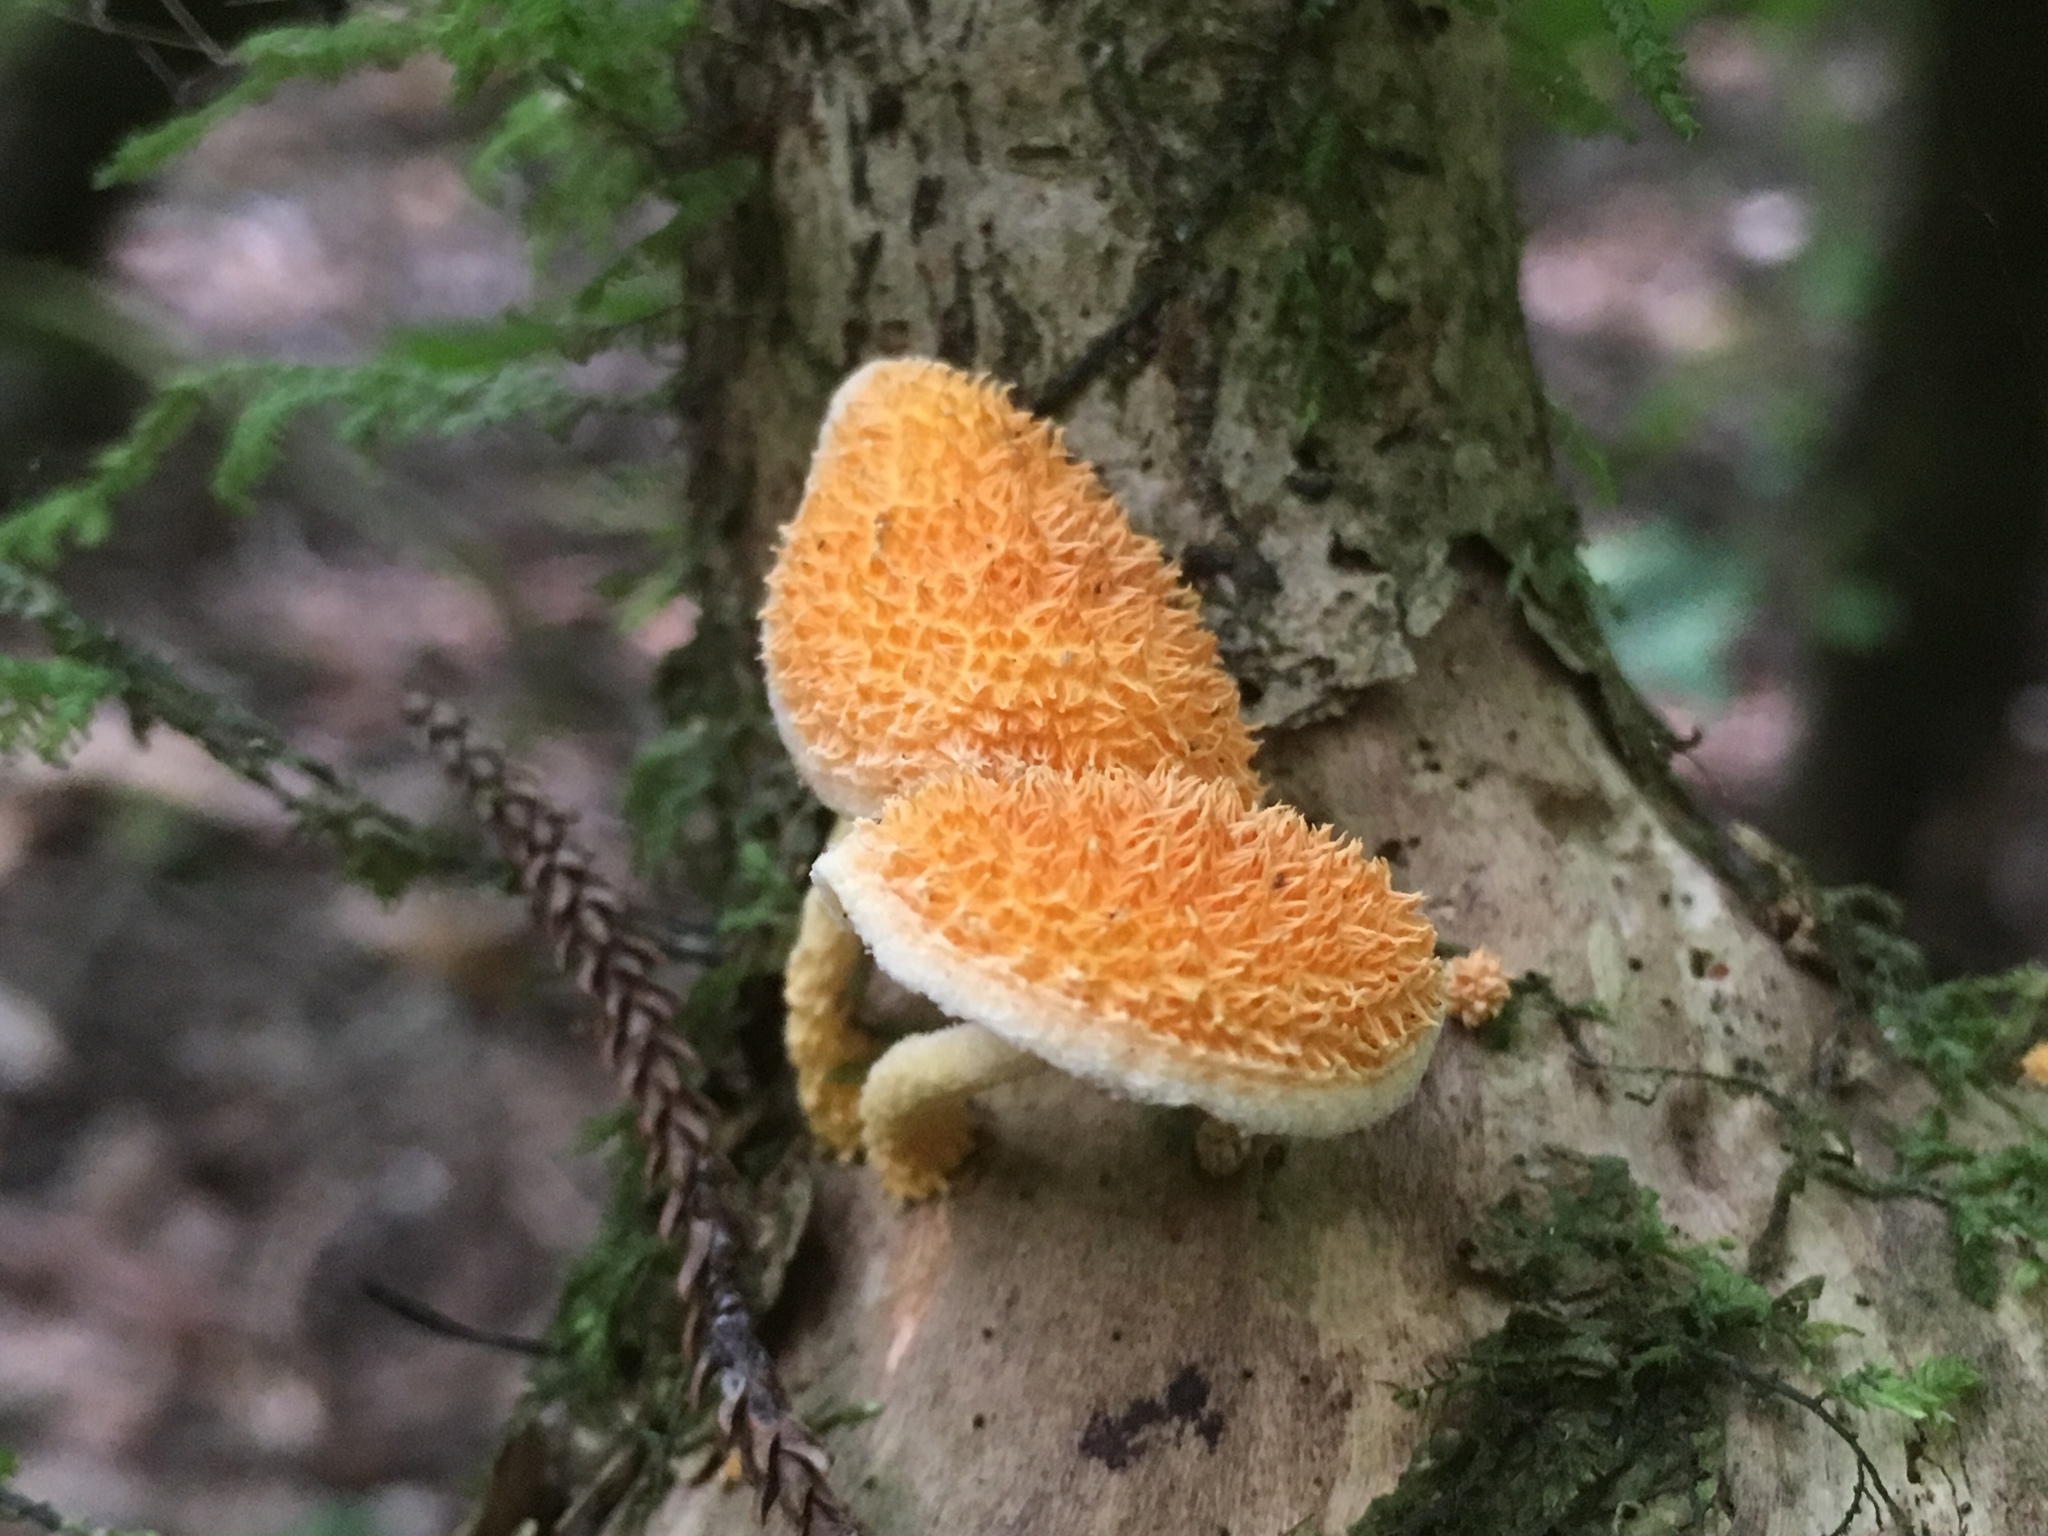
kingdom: Fungi
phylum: Basidiomycota
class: Agaricomycetes
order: Agaricales
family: Physalacriaceae
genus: Cyptotrama
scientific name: Cyptotrama asprata
